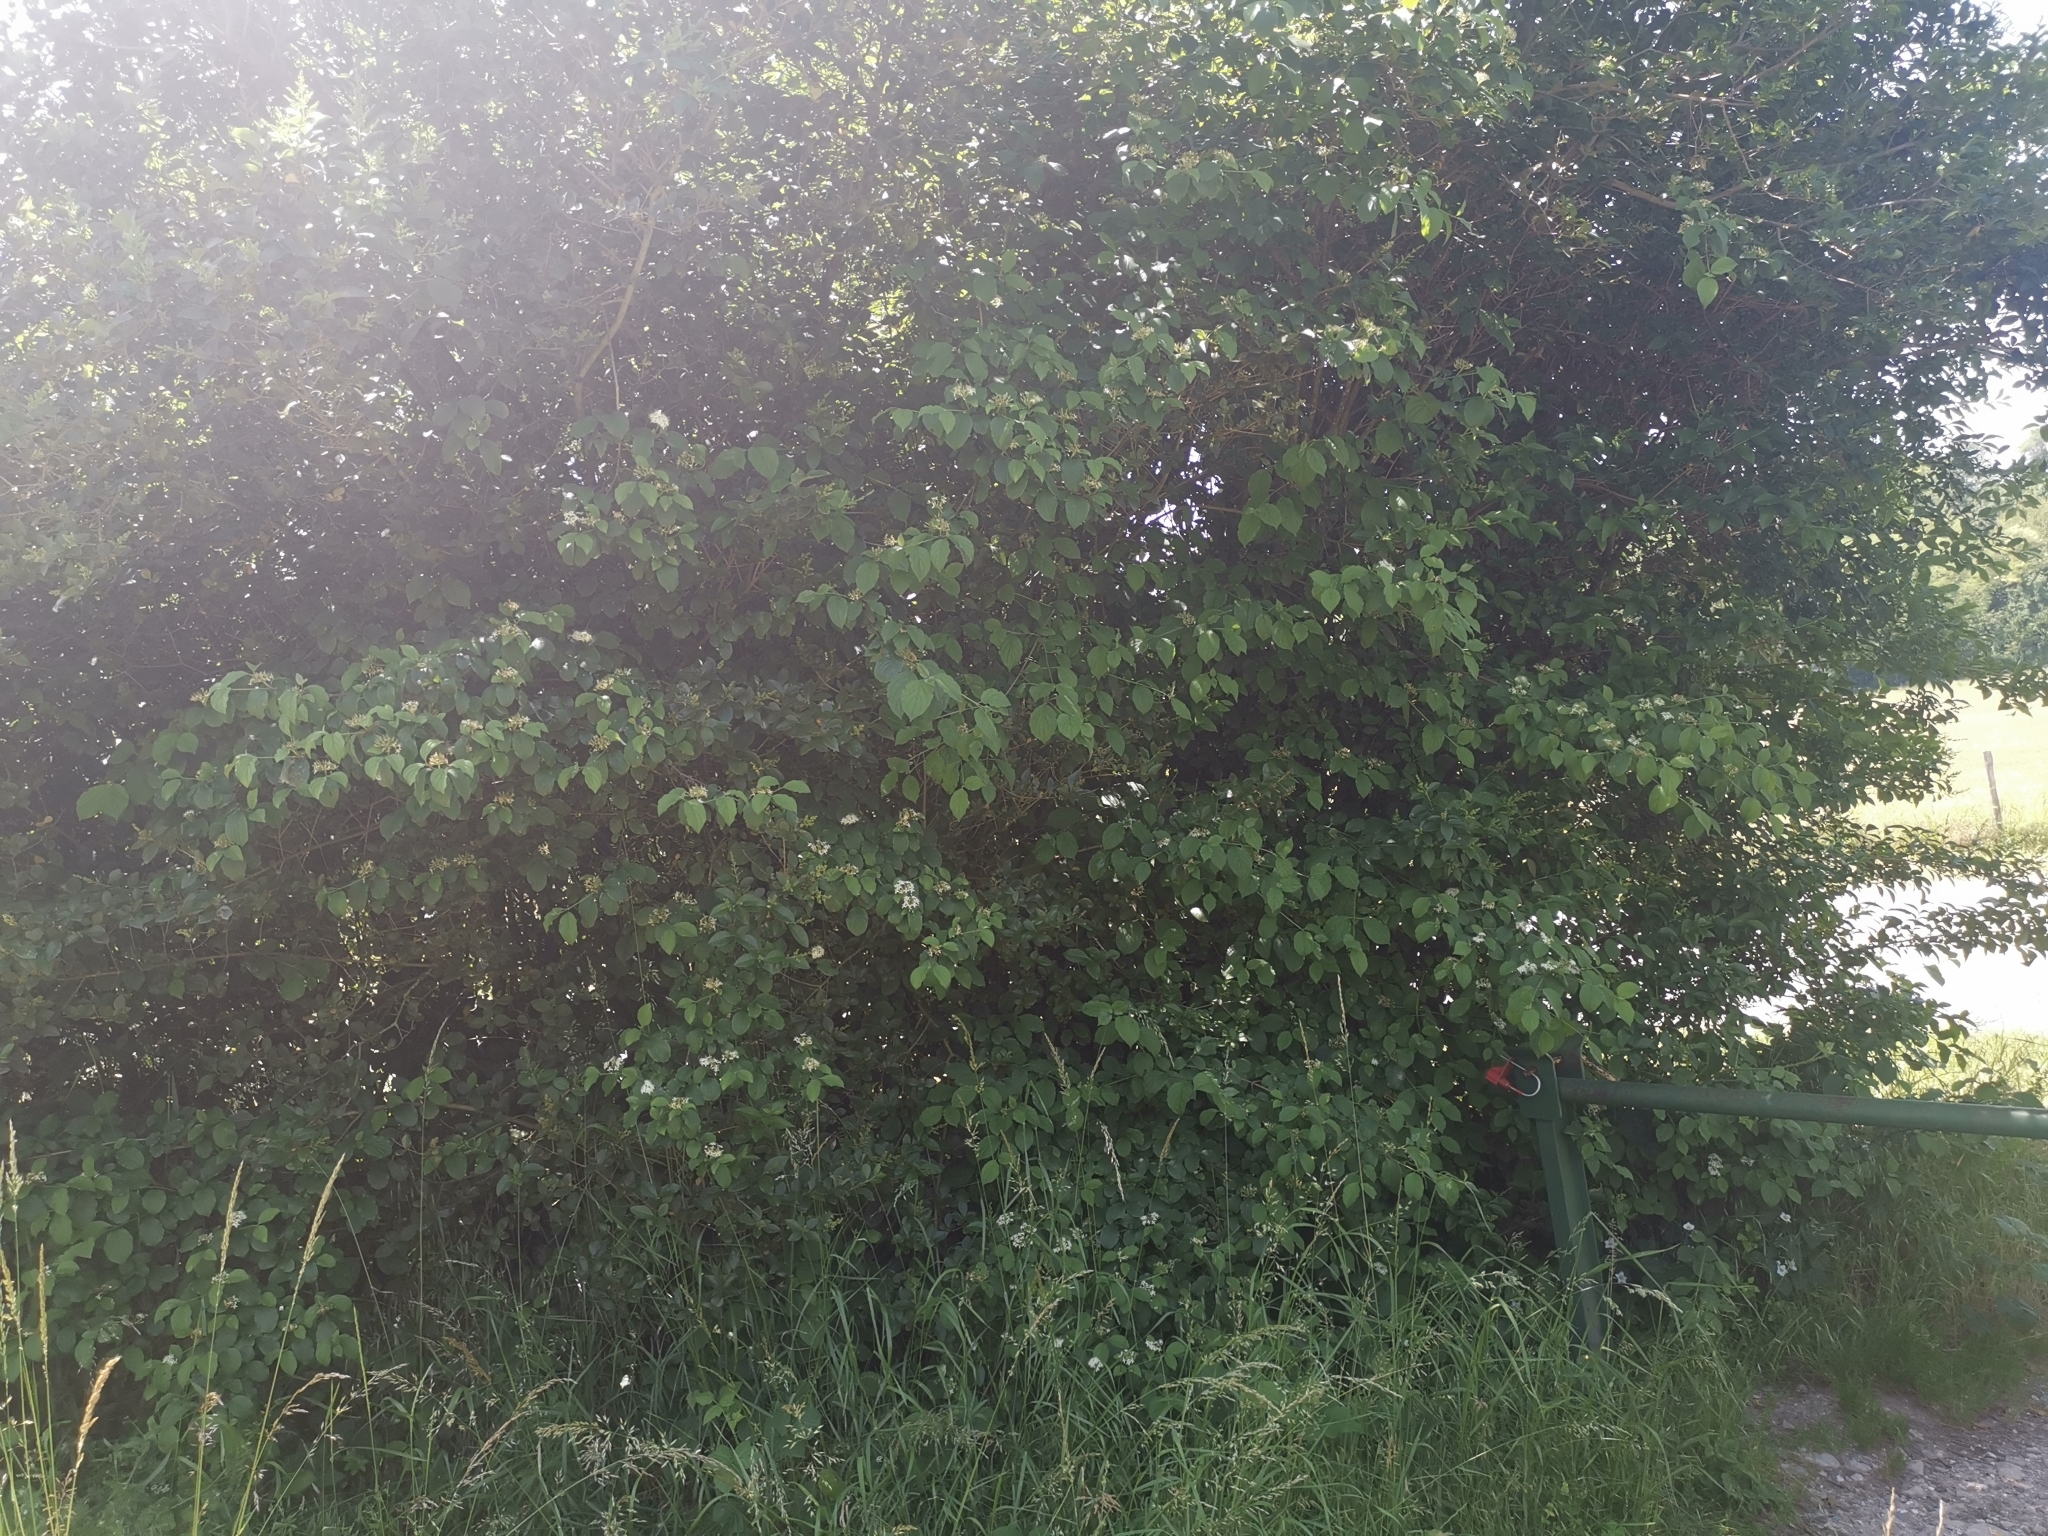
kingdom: Plantae
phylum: Tracheophyta
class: Magnoliopsida
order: Cornales
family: Cornaceae
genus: Cornus
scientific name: Cornus sanguinea
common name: Dogwood
